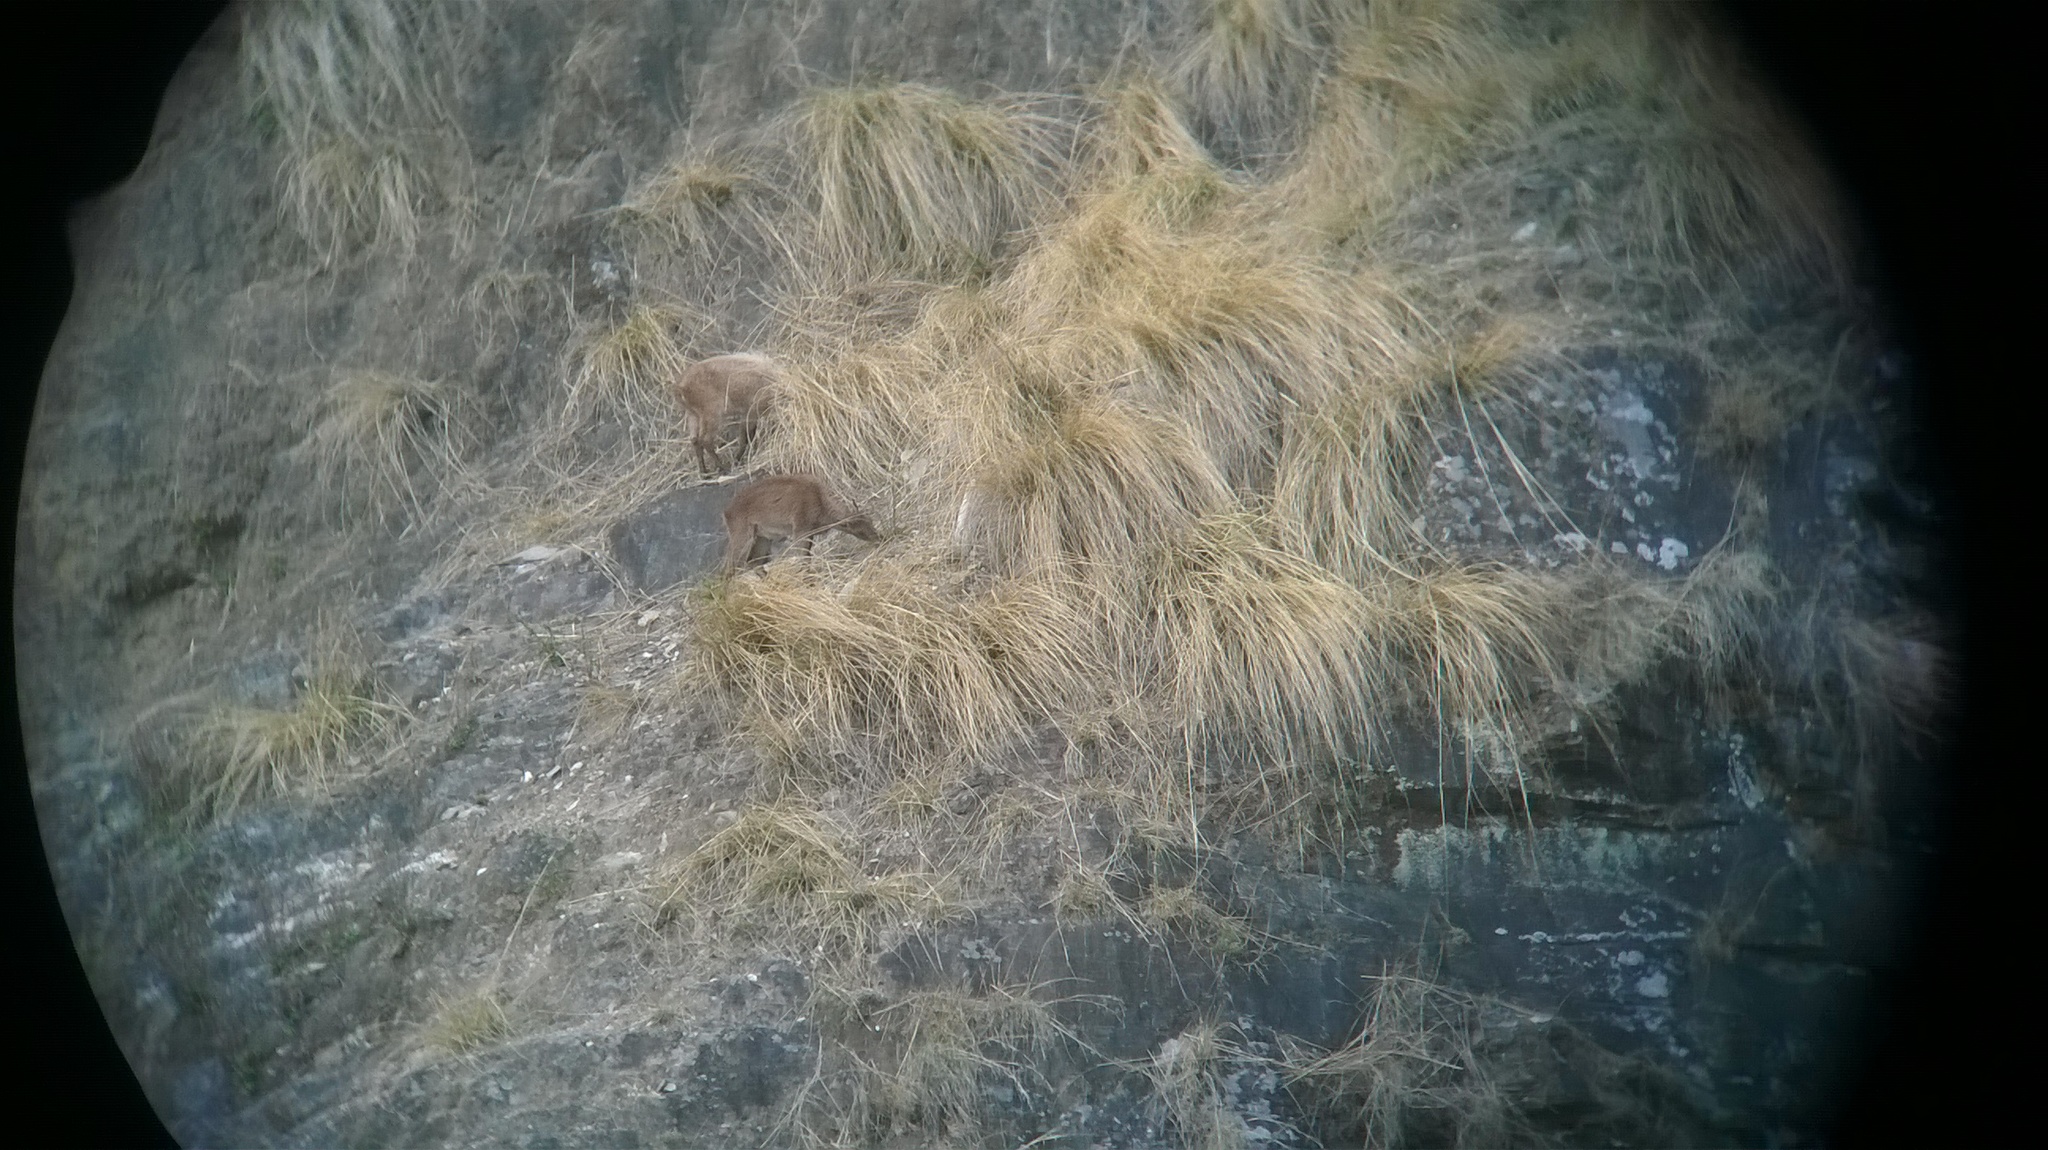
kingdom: Animalia
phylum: Chordata
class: Mammalia
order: Artiodactyla
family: Bovidae
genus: Hemitragus
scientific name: Hemitragus jemlahicus
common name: Himalayan tahr
